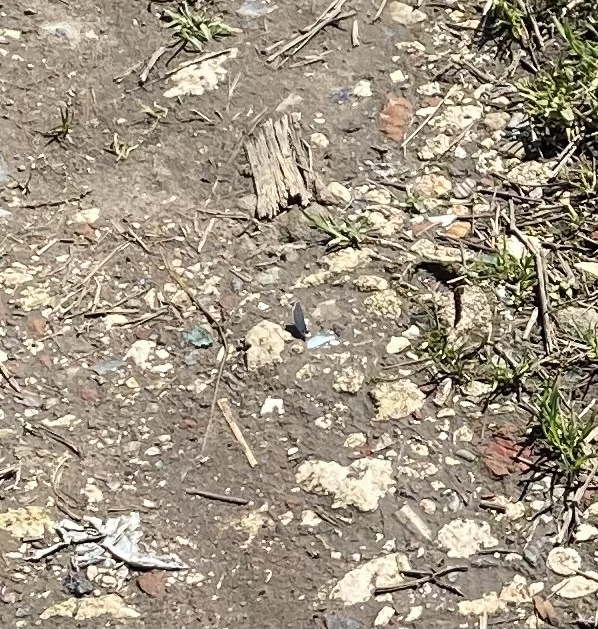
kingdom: Animalia
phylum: Arthropoda
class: Insecta
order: Lepidoptera
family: Lycaenidae
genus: Celastrina
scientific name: Celastrina argiolus
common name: Holly blue
